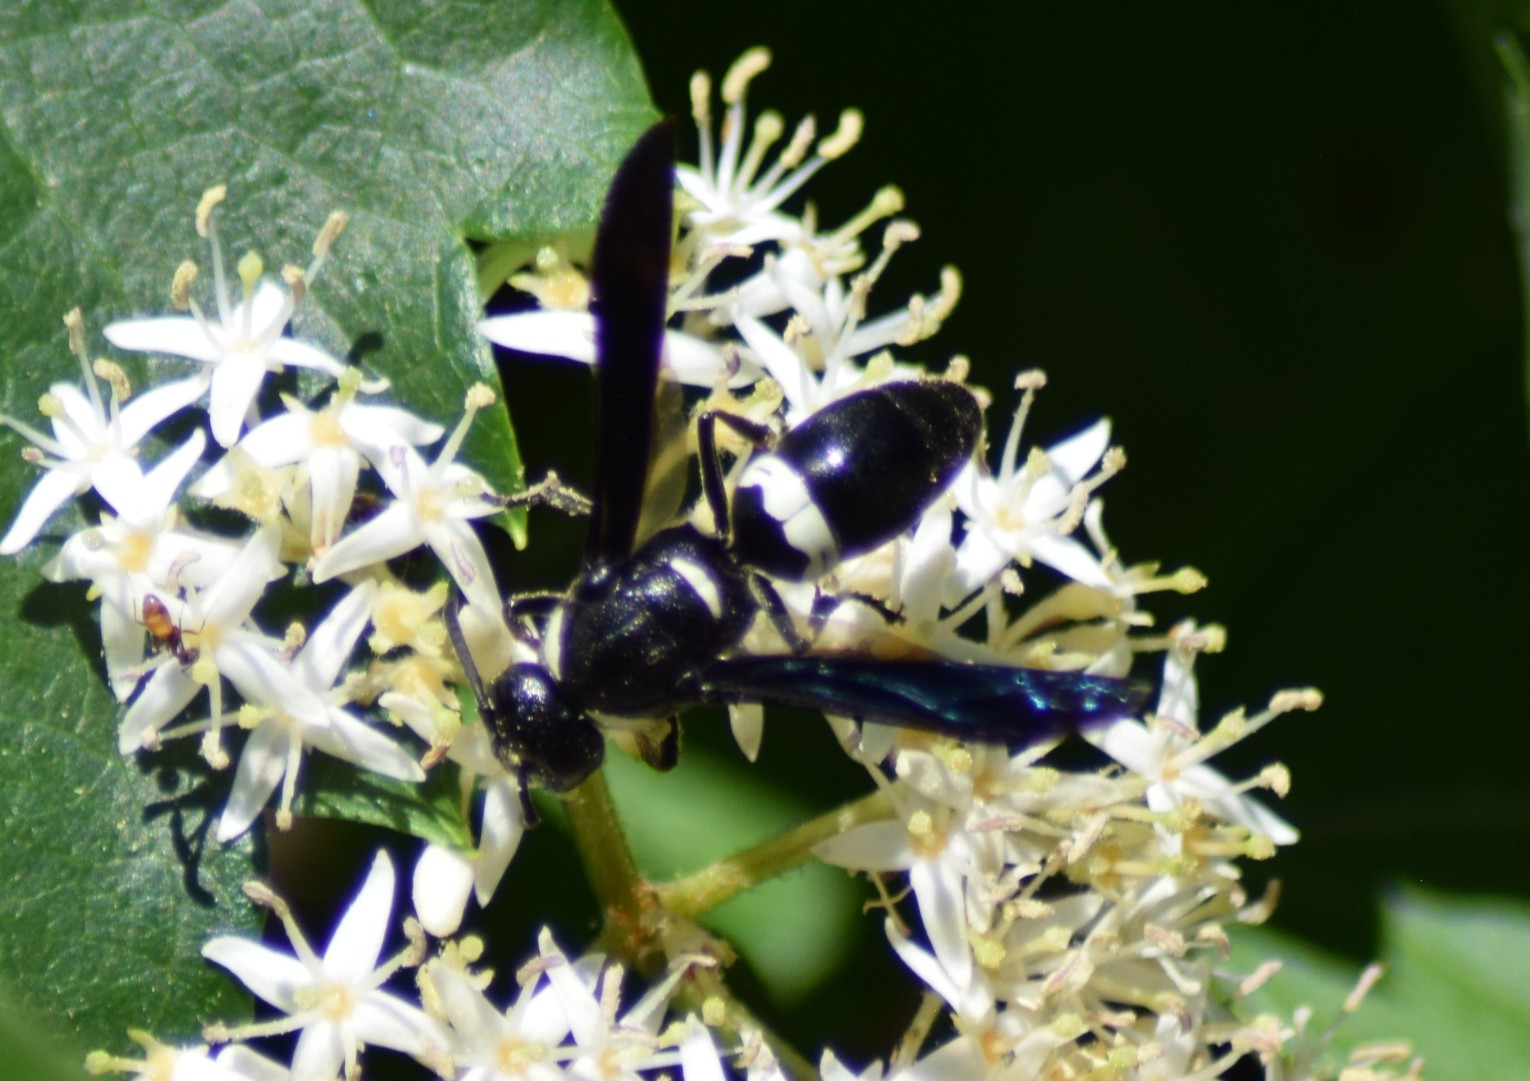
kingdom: Animalia
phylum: Arthropoda
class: Insecta
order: Hymenoptera
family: Eumenidae
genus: Monobia
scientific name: Monobia quadridens
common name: Four-toothed mason wasp
